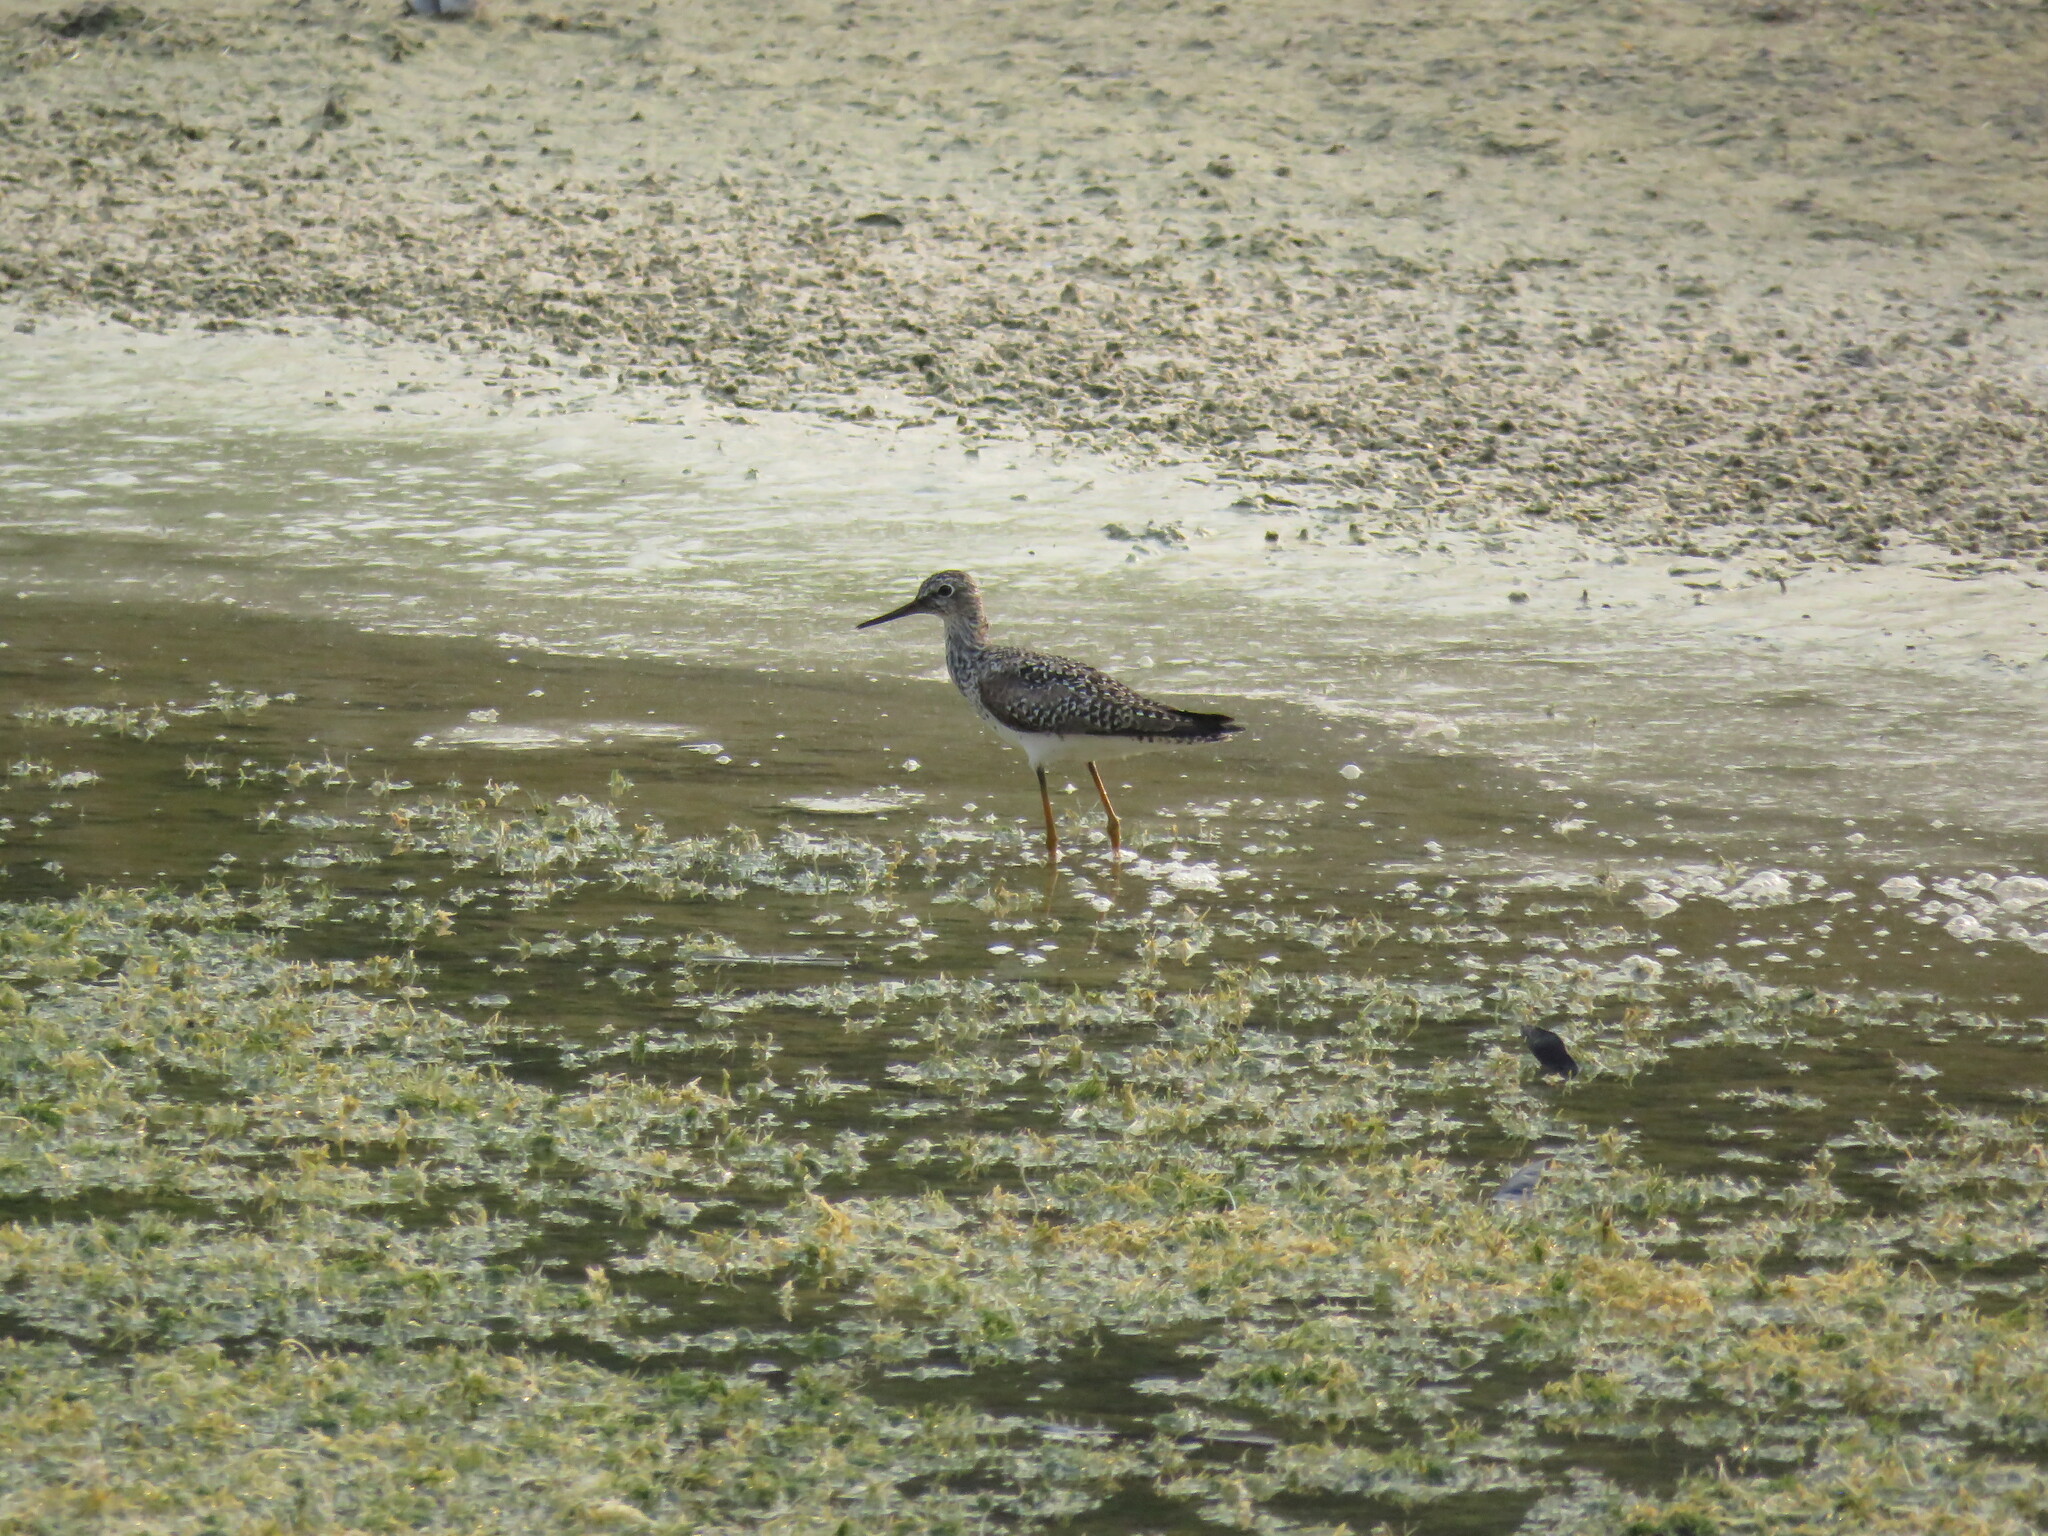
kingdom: Animalia
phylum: Chordata
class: Aves
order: Charadriiformes
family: Scolopacidae
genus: Tringa
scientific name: Tringa flavipes
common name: Lesser yellowlegs
